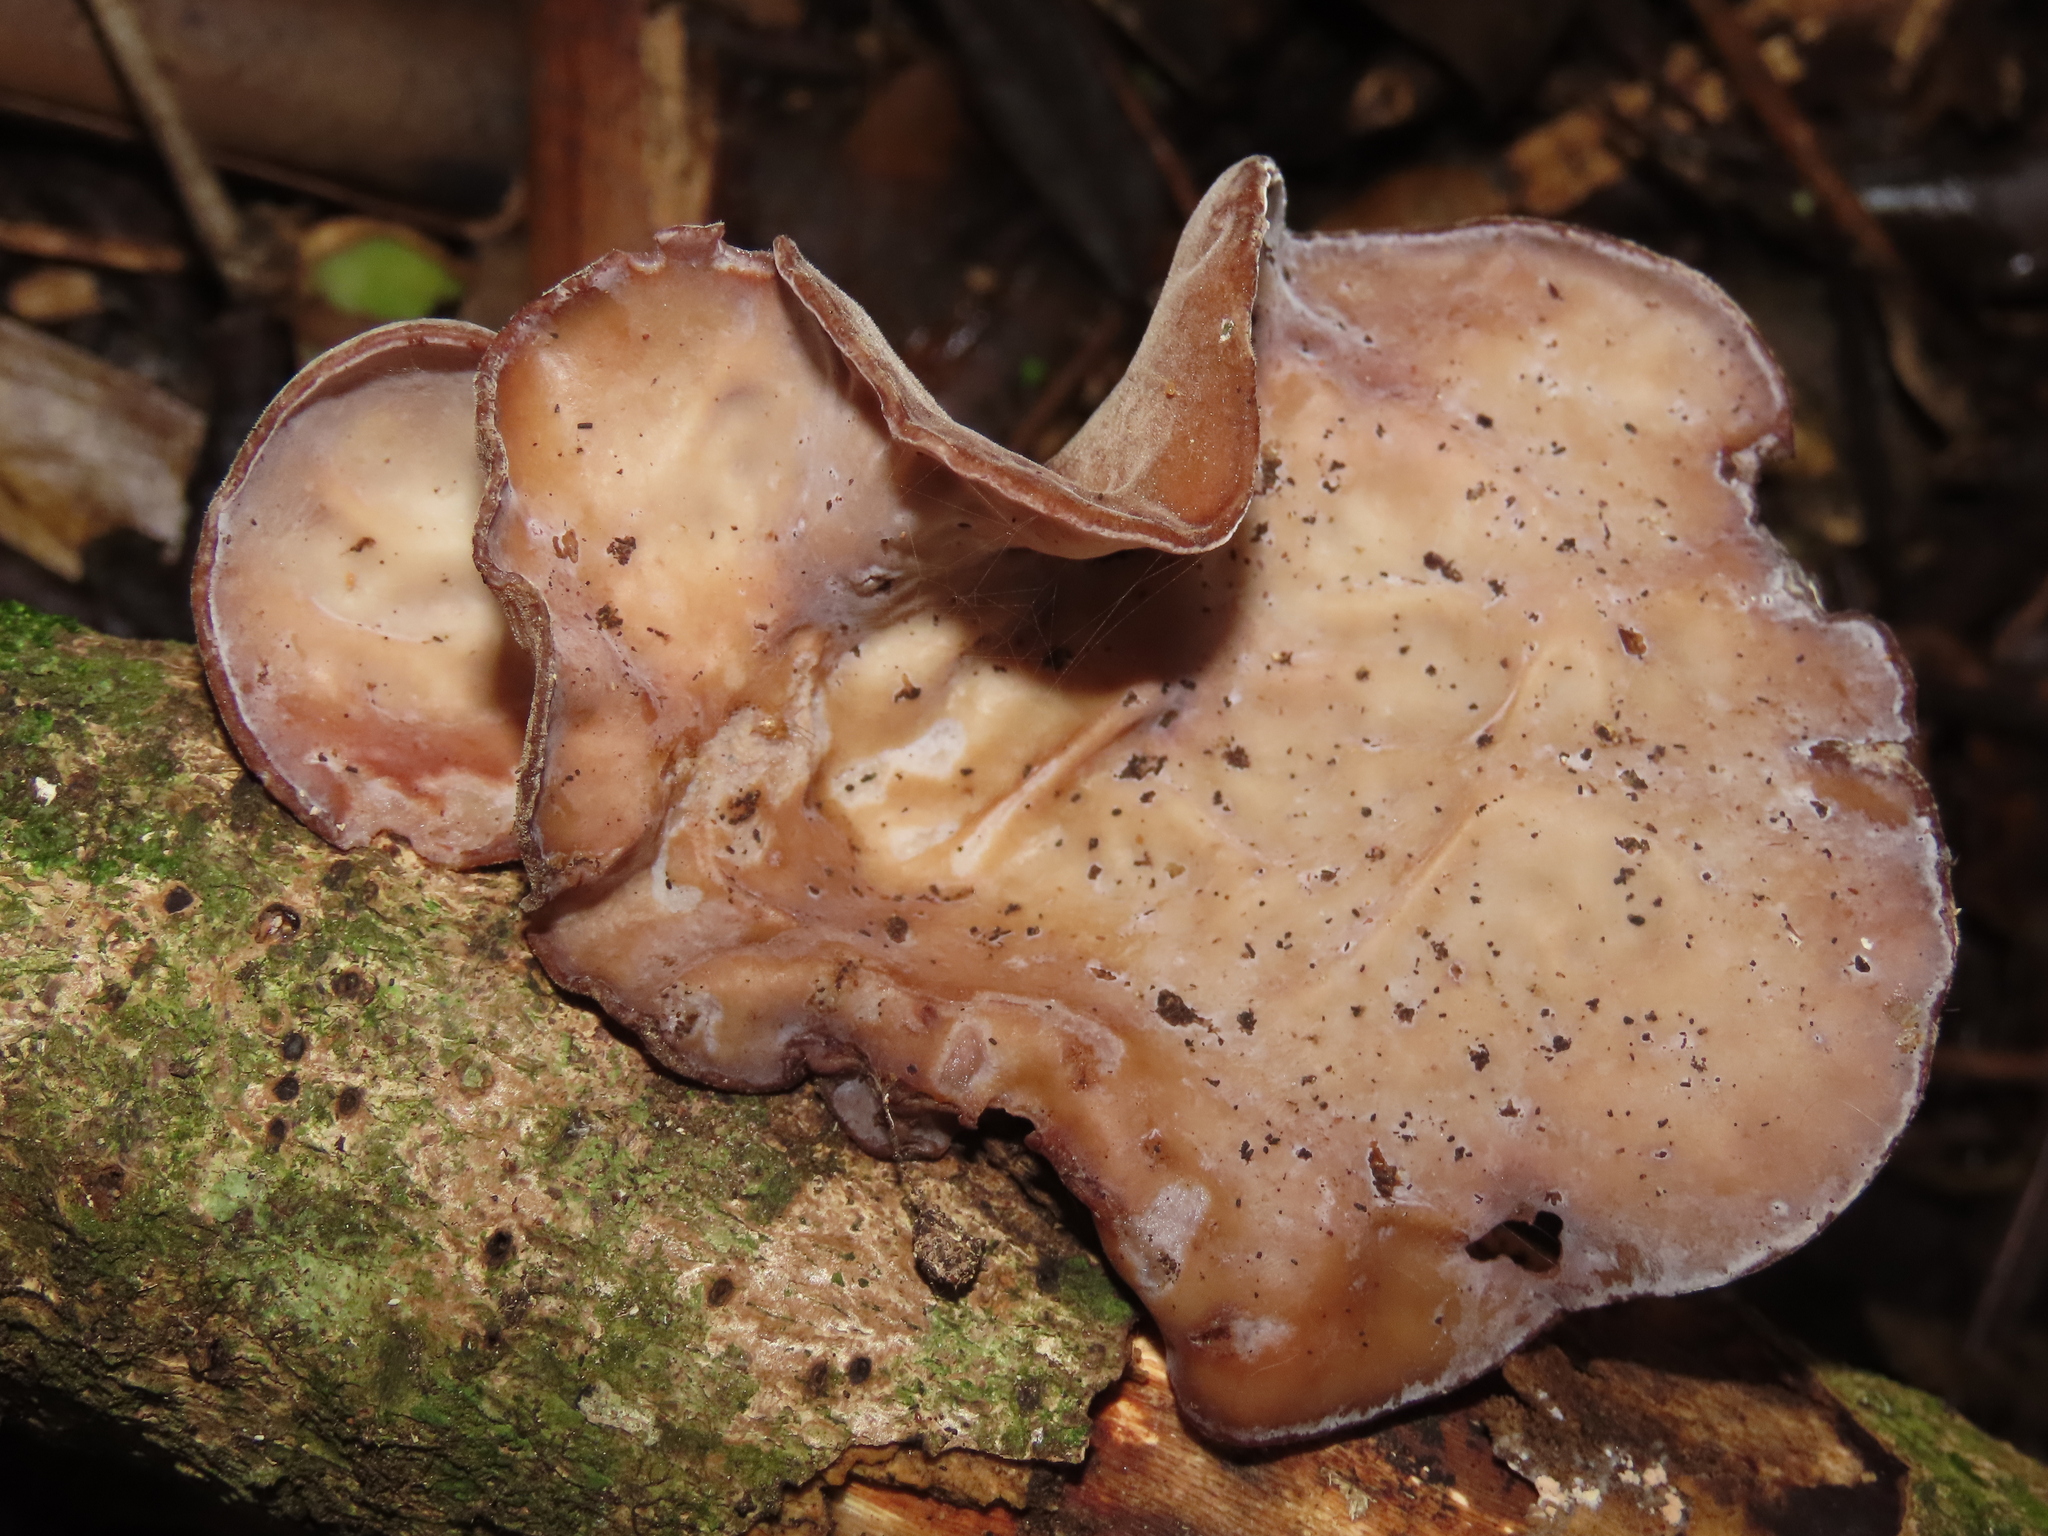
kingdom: Fungi
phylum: Basidiomycota
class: Agaricomycetes
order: Auriculariales
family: Auriculariaceae
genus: Auricularia
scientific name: Auricularia cornea
